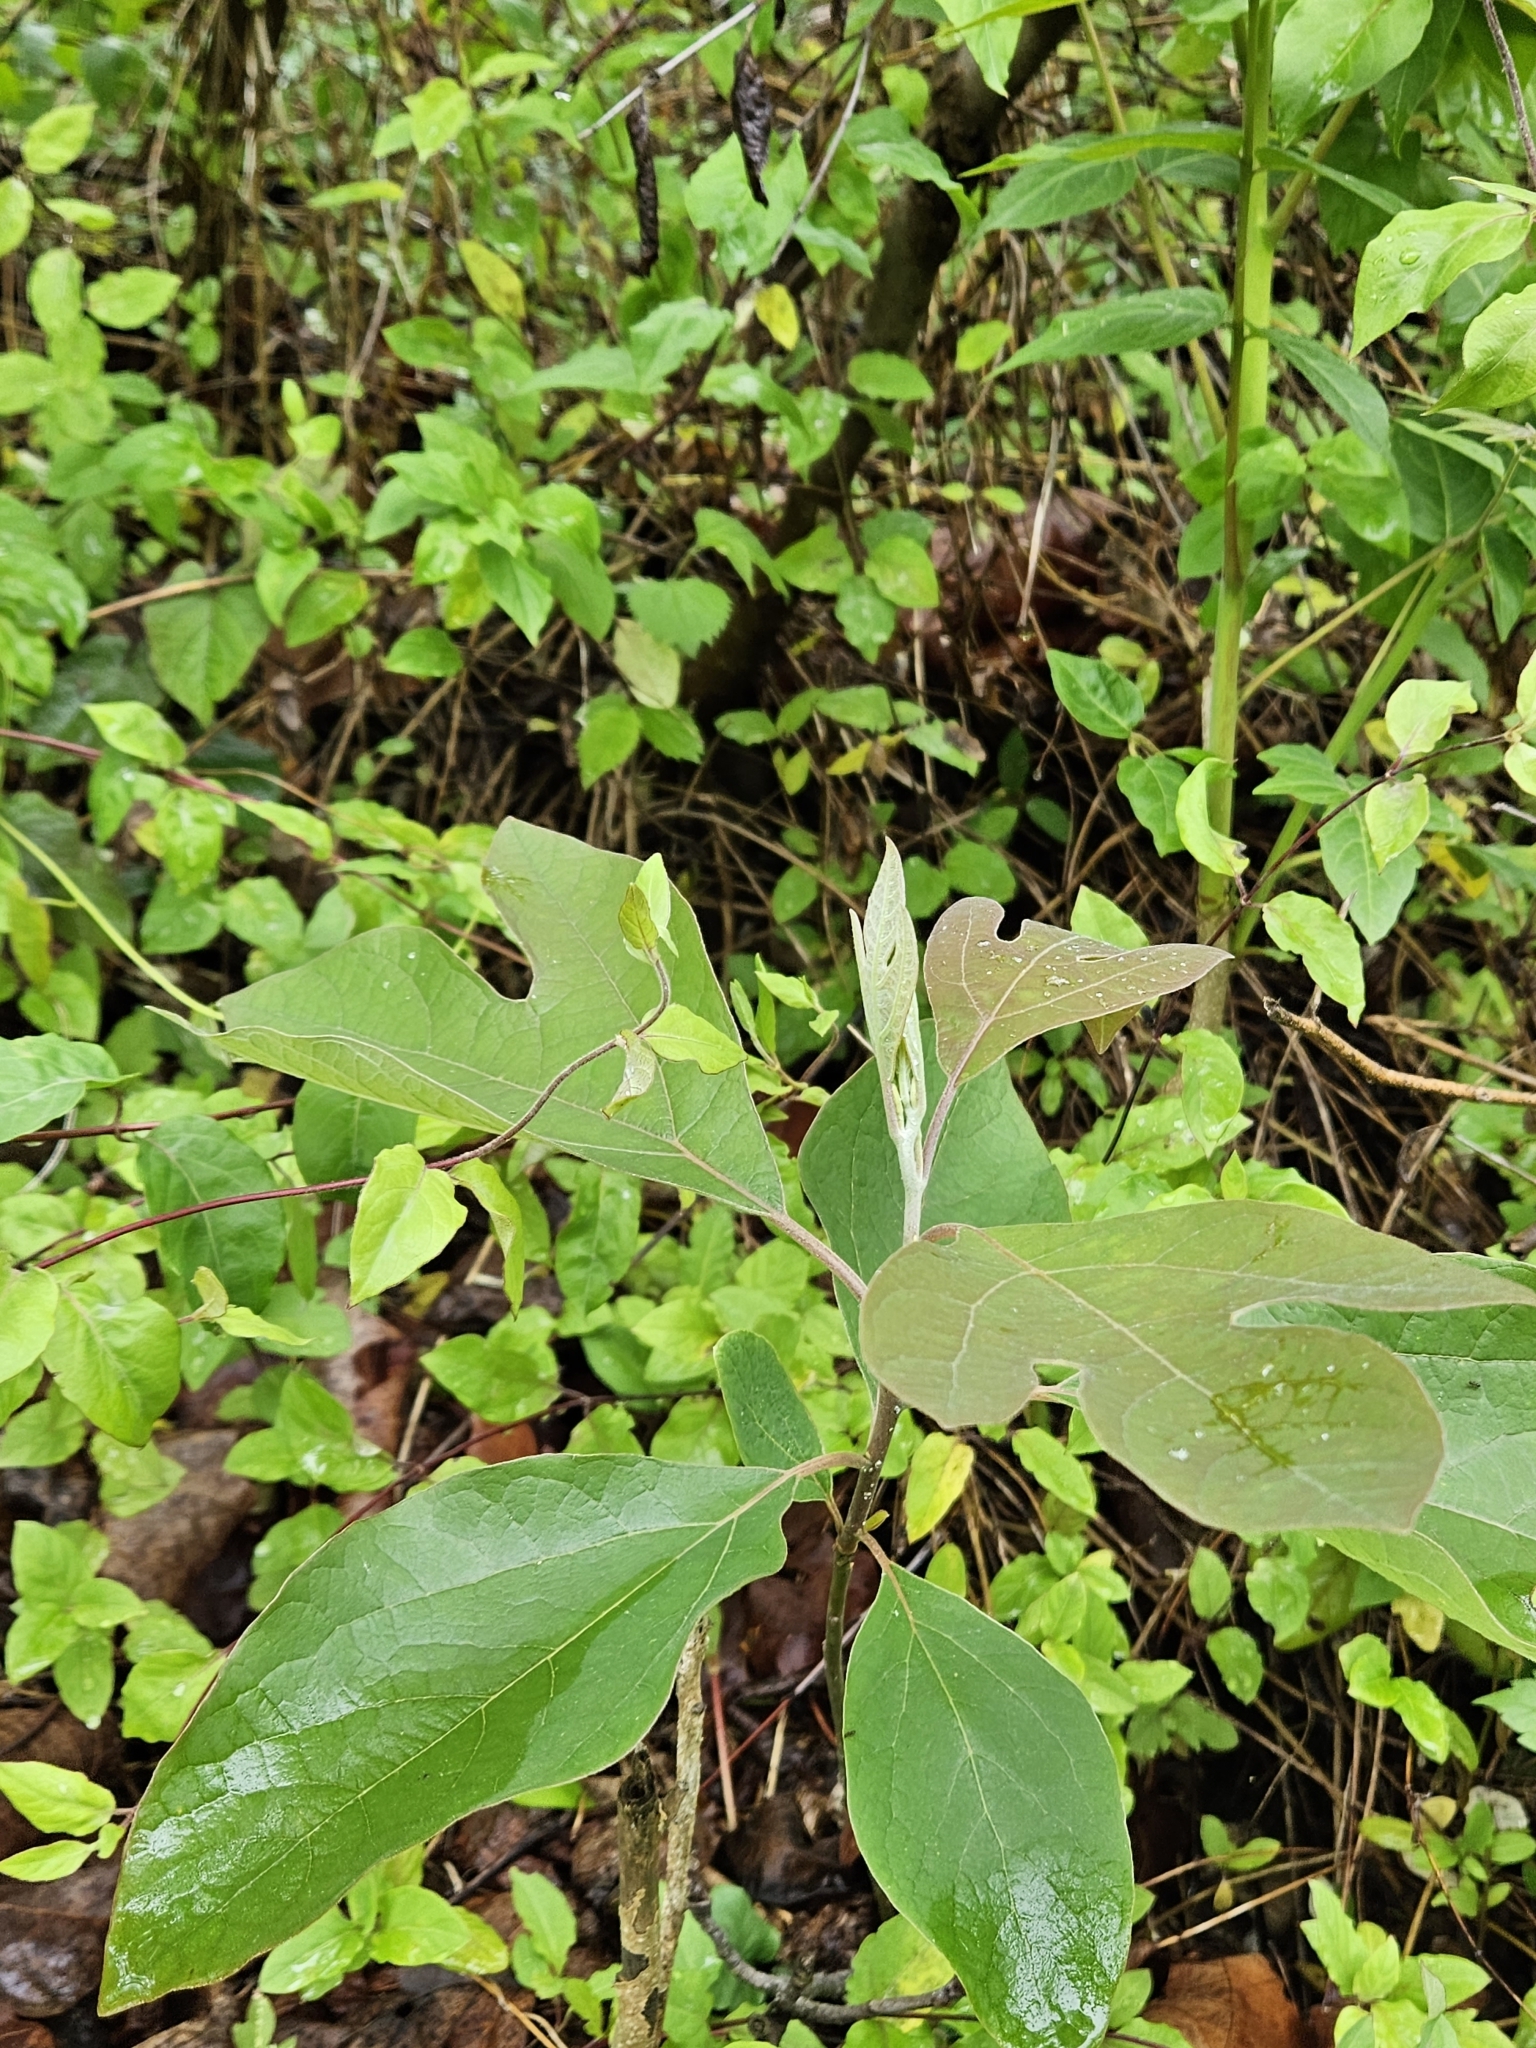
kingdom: Plantae
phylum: Tracheophyta
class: Magnoliopsida
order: Laurales
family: Lauraceae
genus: Sassafras
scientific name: Sassafras albidum
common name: Sassafras
